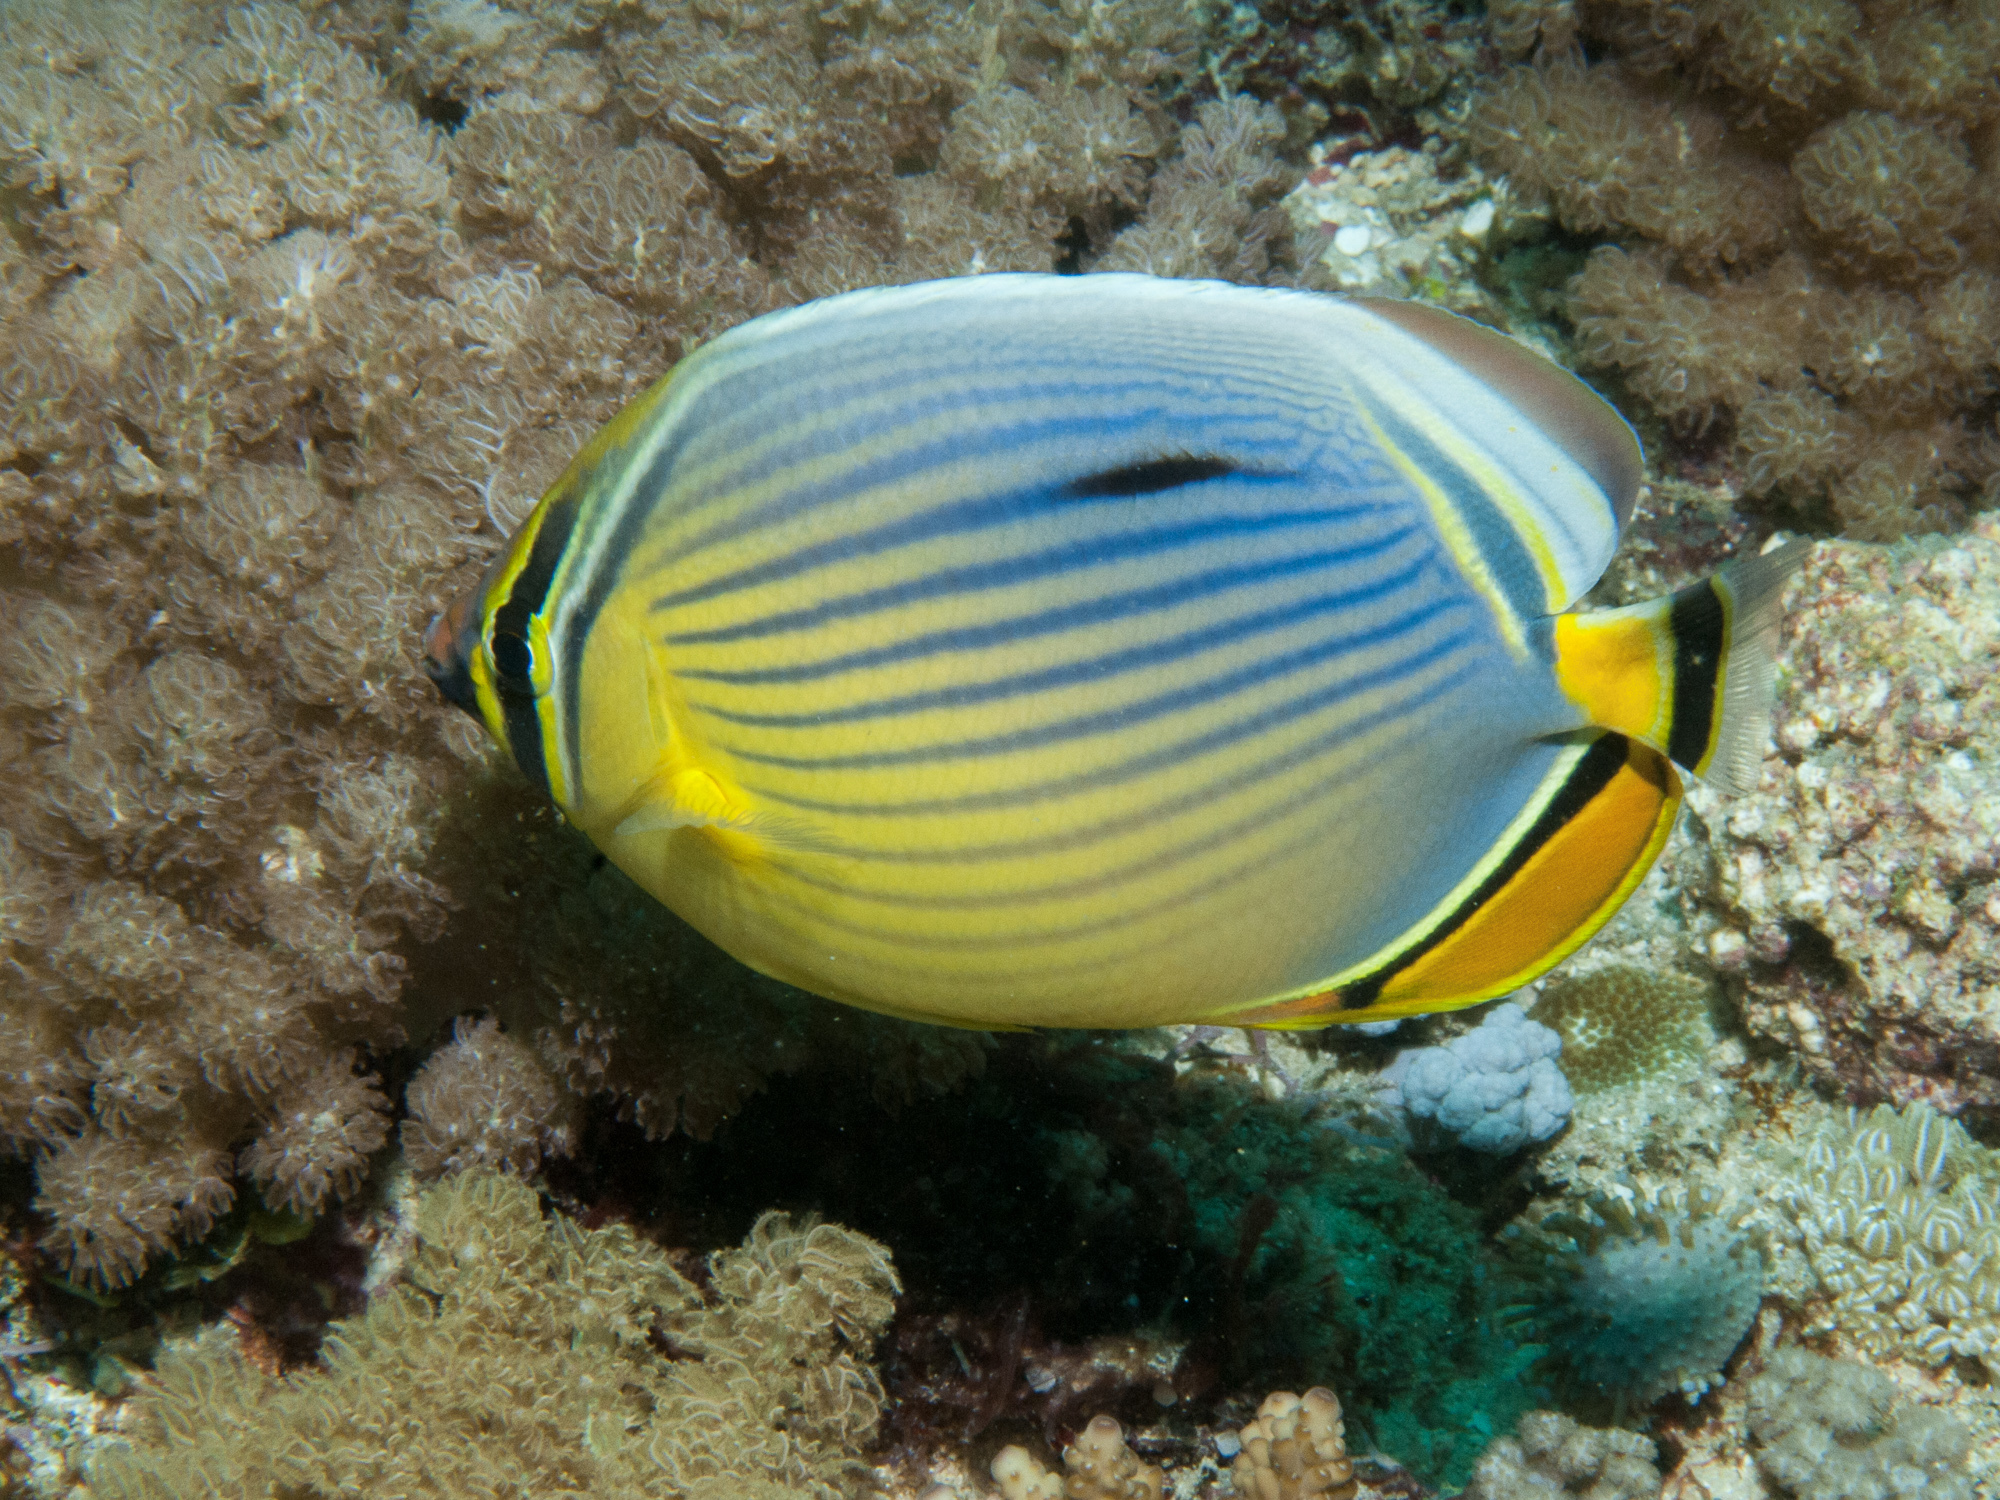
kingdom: Animalia
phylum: Chordata
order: Perciformes
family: Chaetodontidae
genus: Chaetodon
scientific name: Chaetodon trifasciatus
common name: Redfin butterflyfish
